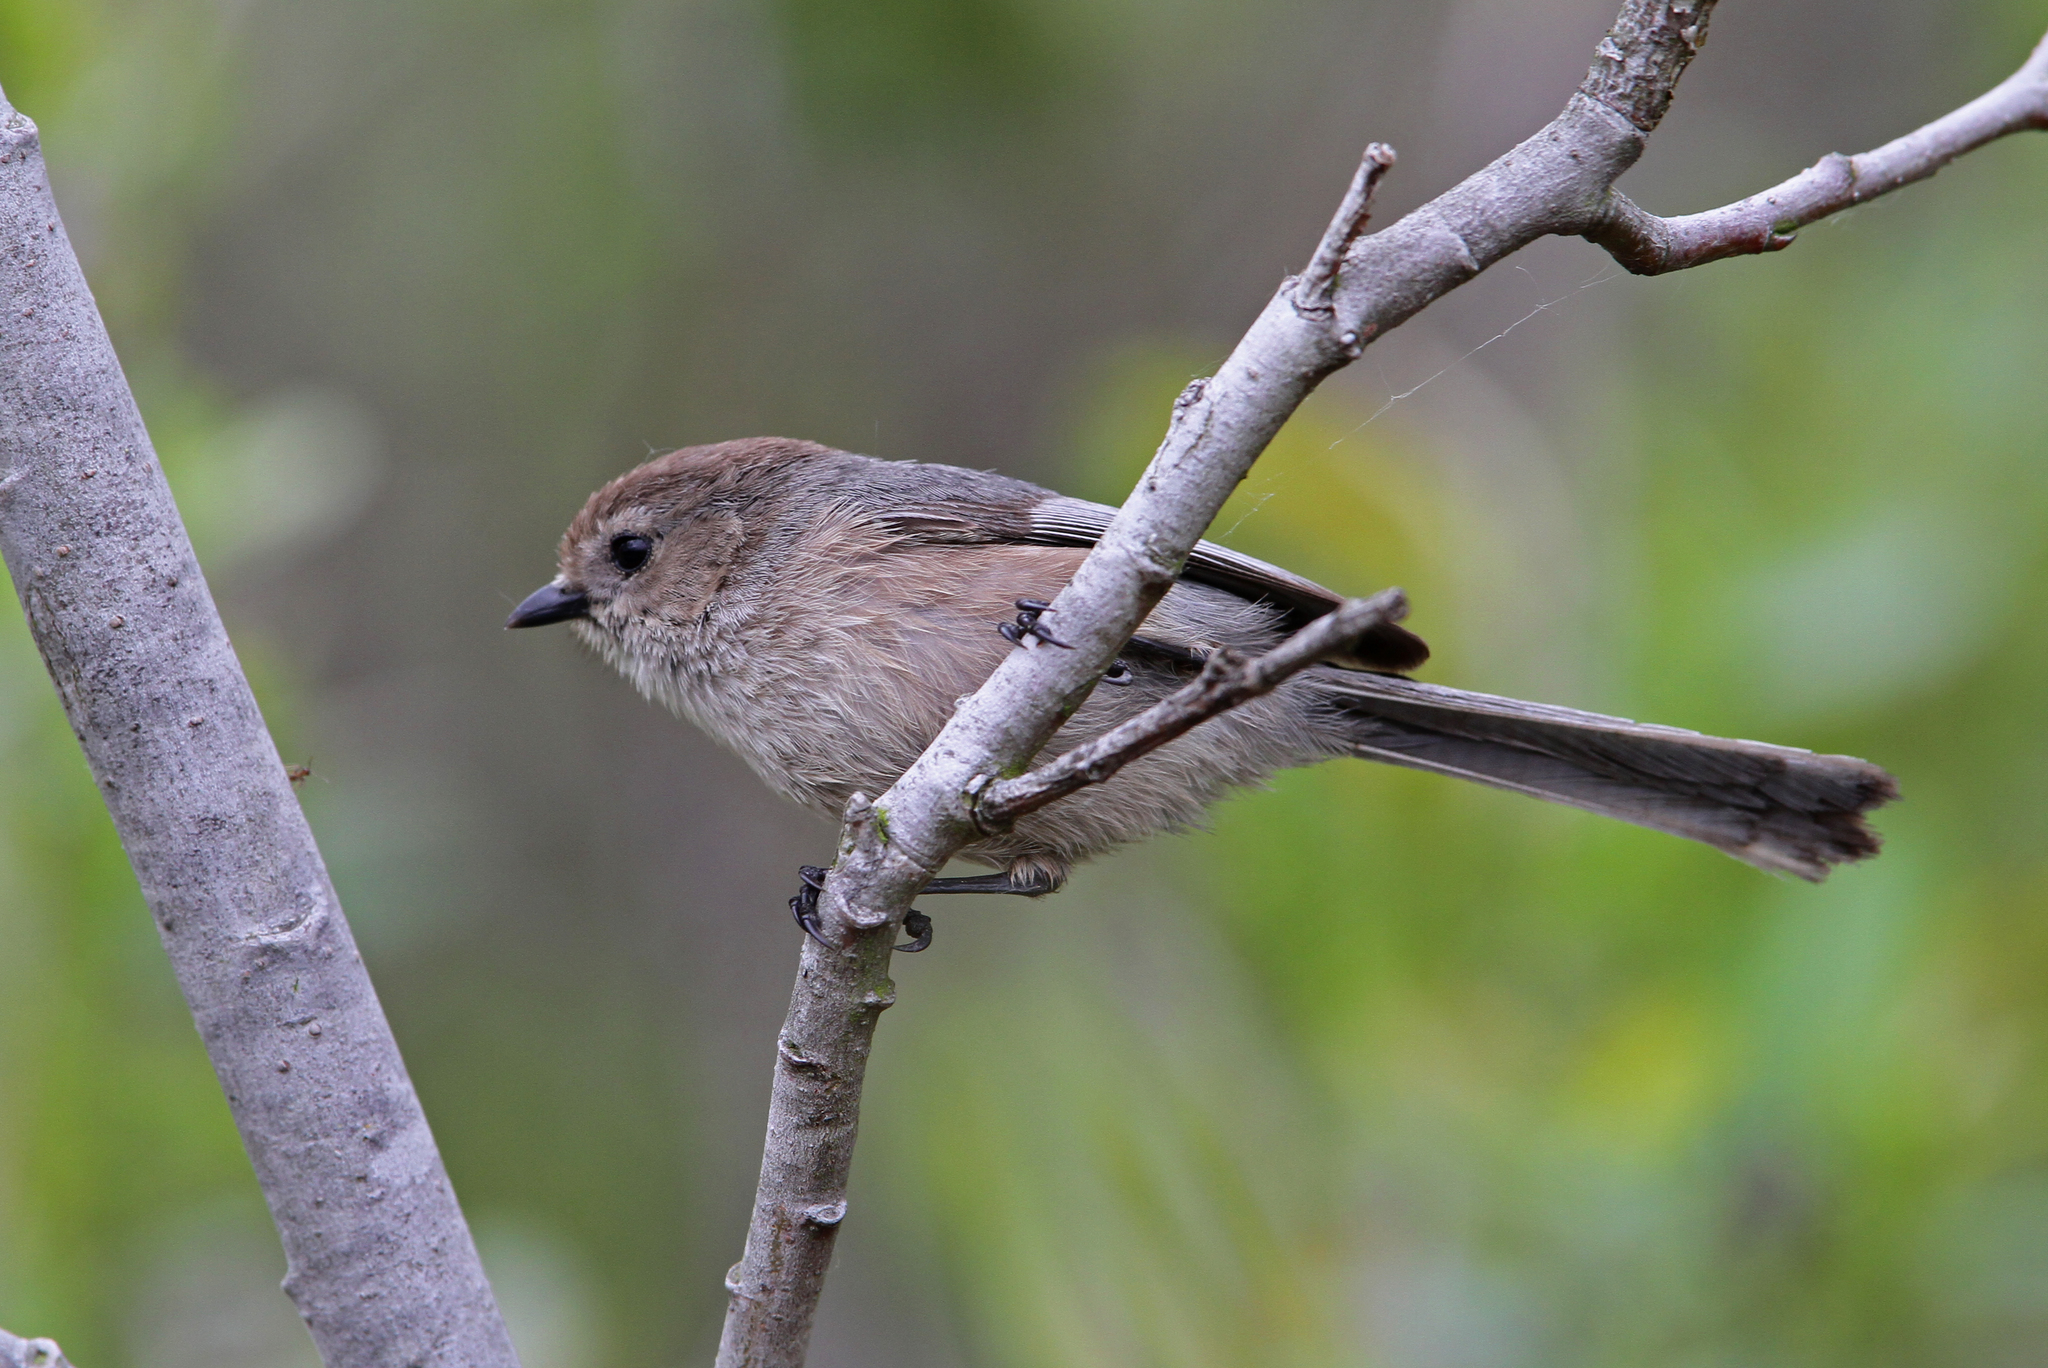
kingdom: Animalia
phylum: Chordata
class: Aves
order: Passeriformes
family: Aegithalidae
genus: Psaltriparus
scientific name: Psaltriparus minimus
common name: American bushtit
